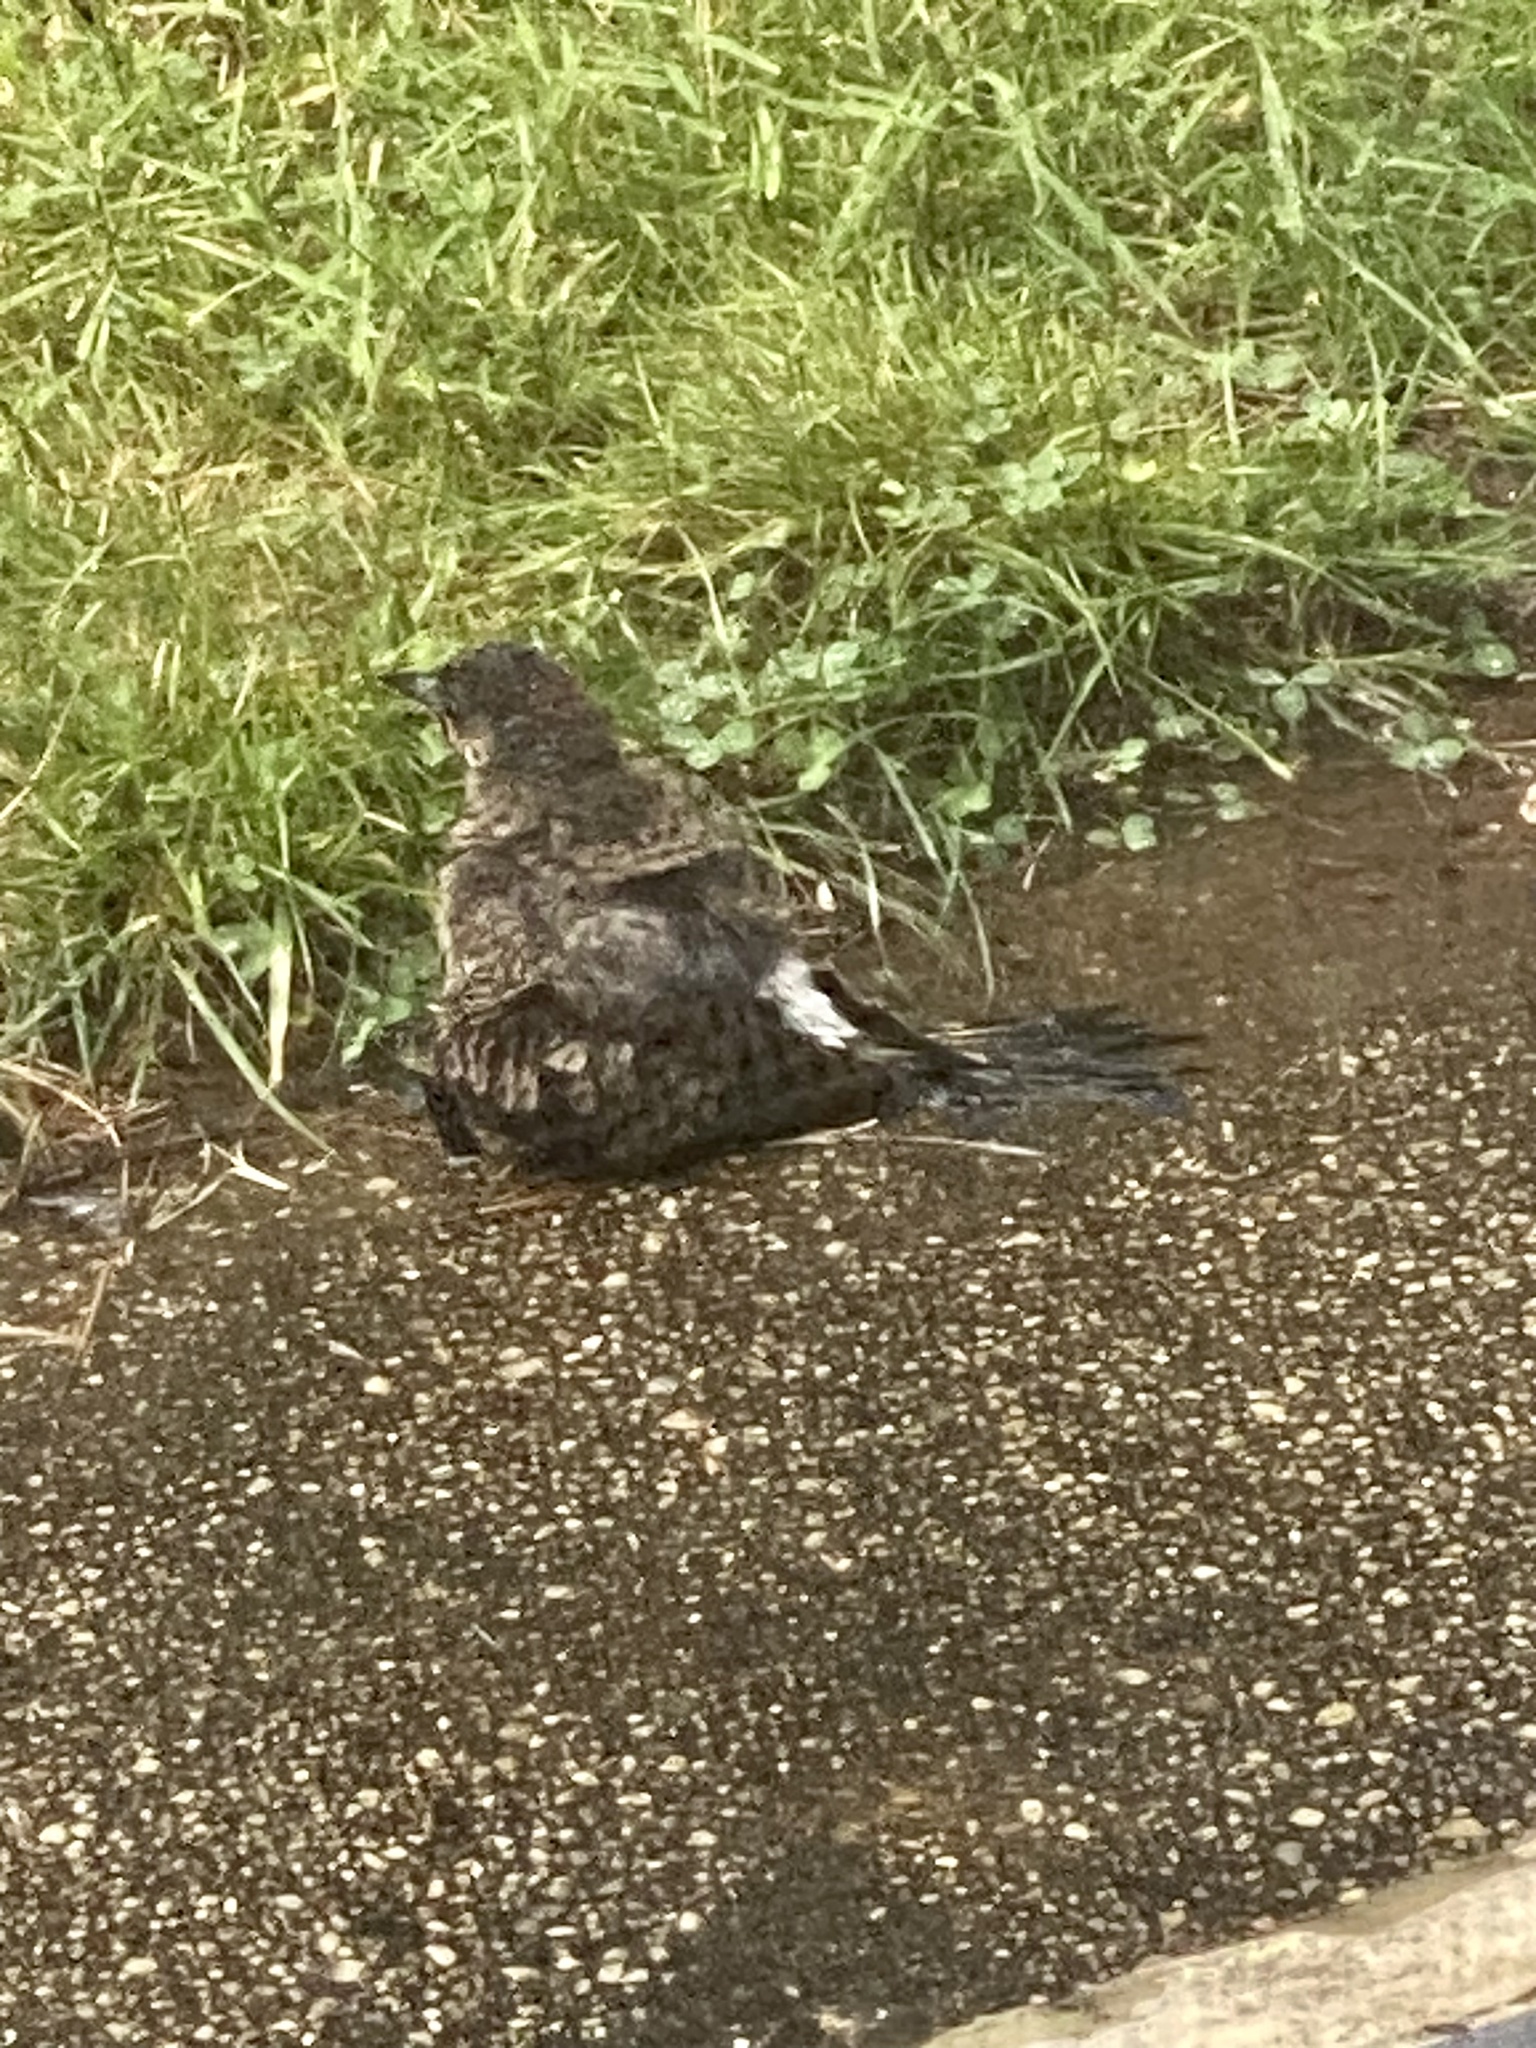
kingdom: Animalia
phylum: Chordata
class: Aves
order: Piciformes
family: Picidae
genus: Colaptes
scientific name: Colaptes auratus
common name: Northern flicker
